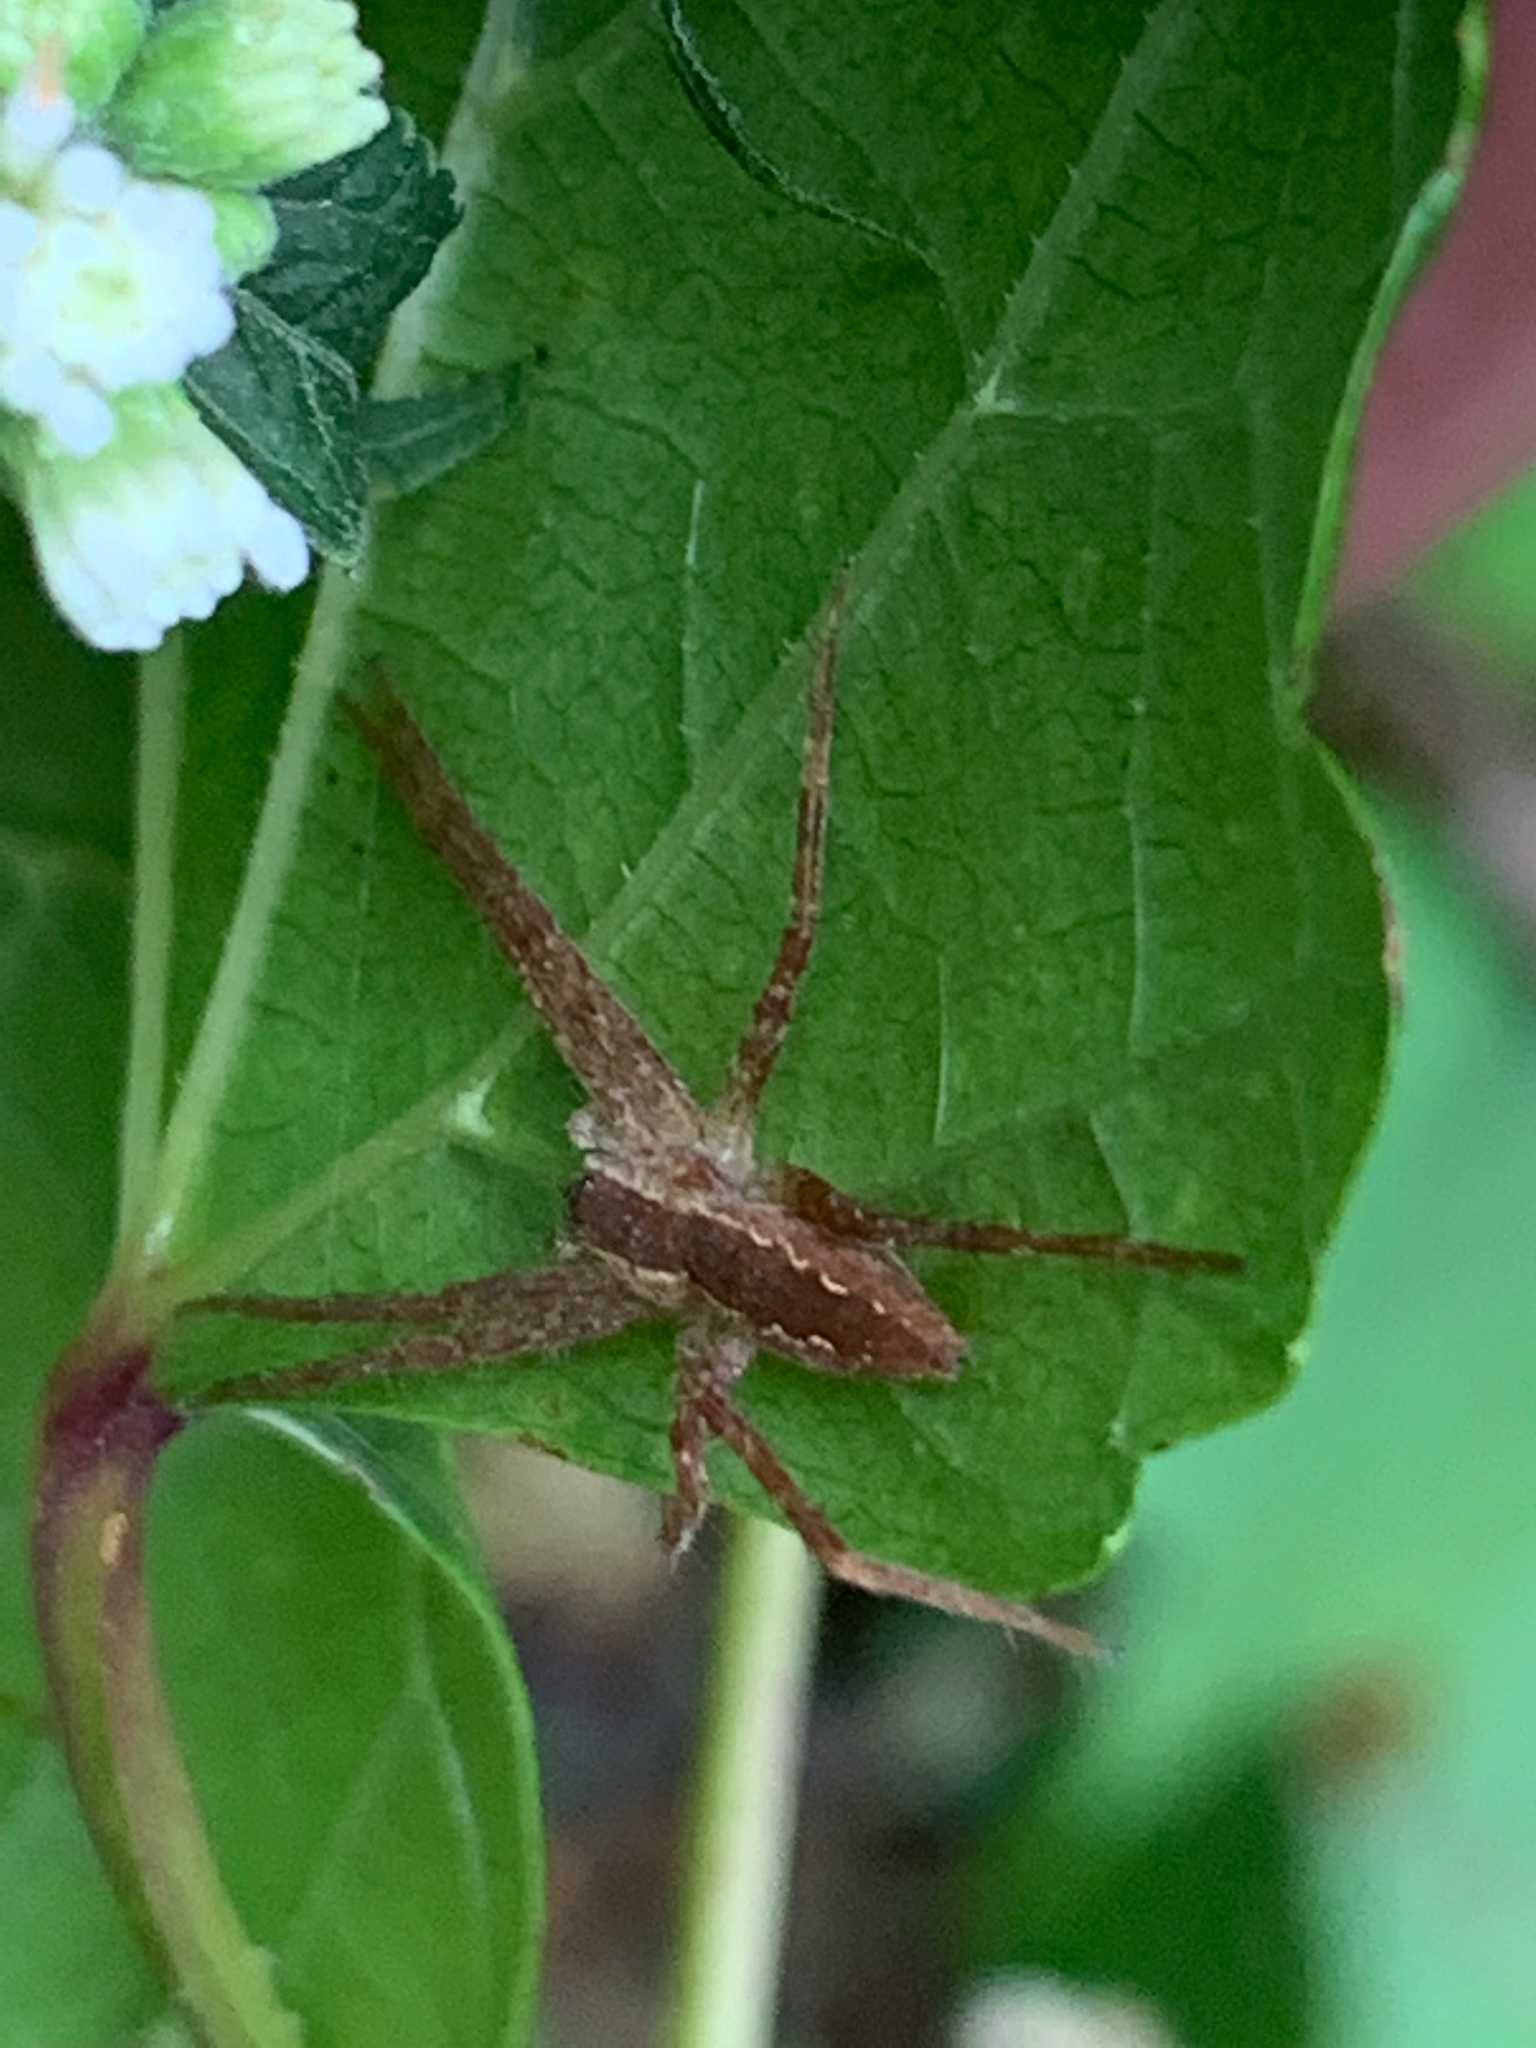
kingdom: Animalia
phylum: Arthropoda
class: Arachnida
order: Araneae
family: Pisauridae
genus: Pisaurina
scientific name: Pisaurina mira
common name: American nursery web spider
